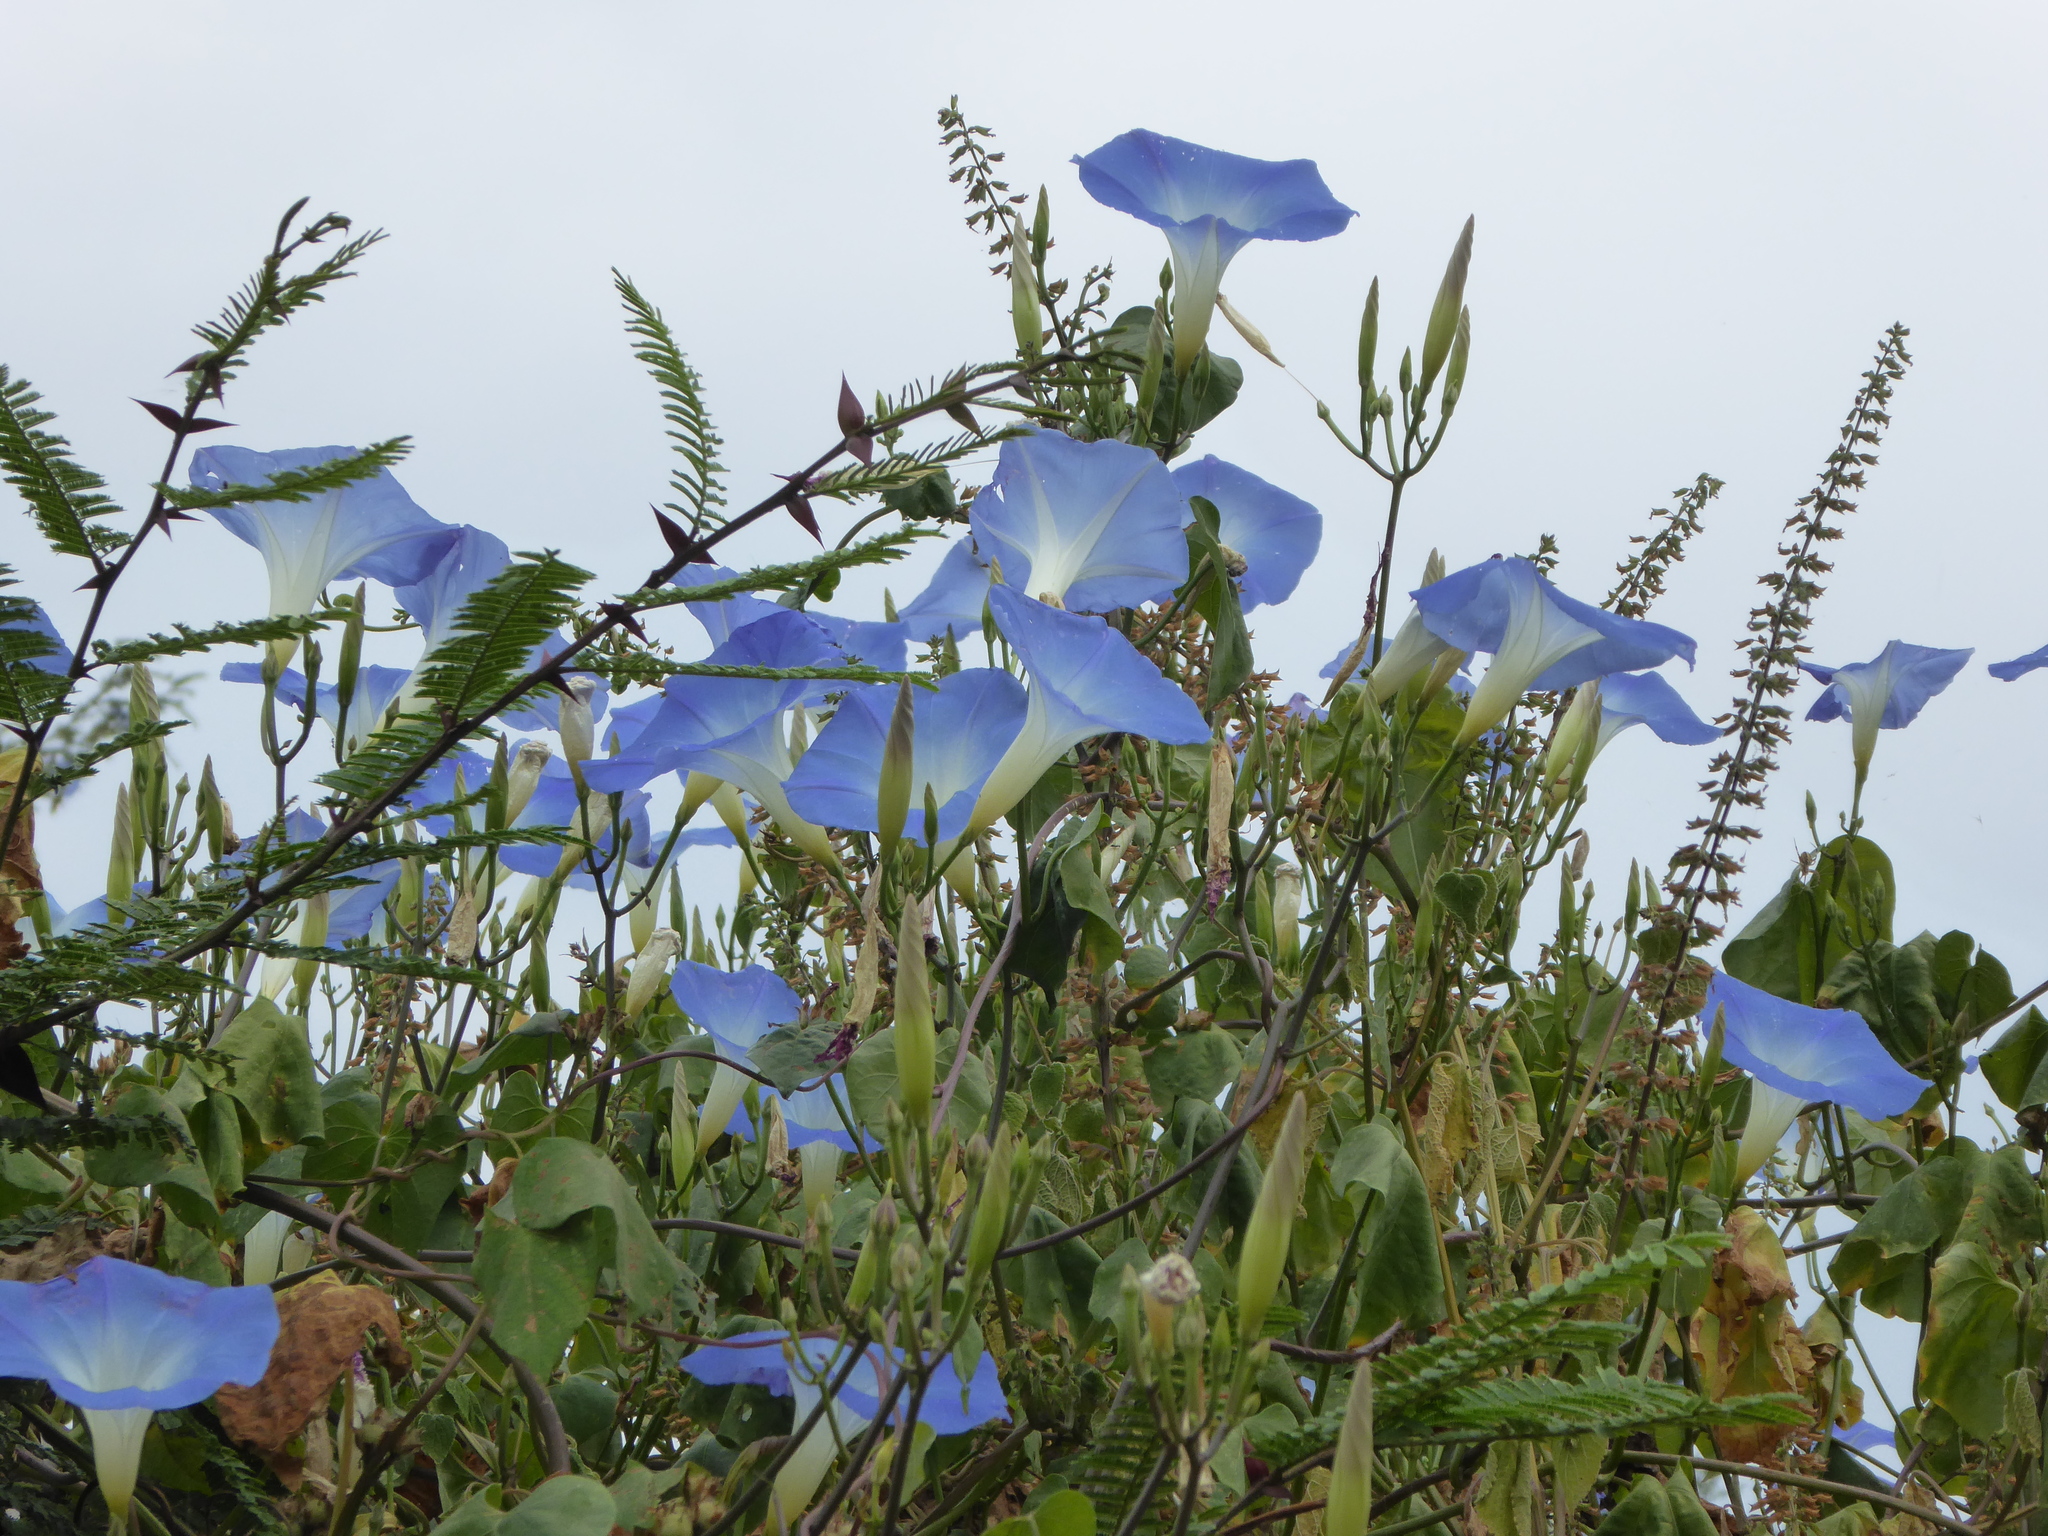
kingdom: Plantae
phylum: Tracheophyta
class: Magnoliopsida
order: Solanales
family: Convolvulaceae
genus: Ipomoea
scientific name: Ipomoea tricolor
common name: Morning-glory
